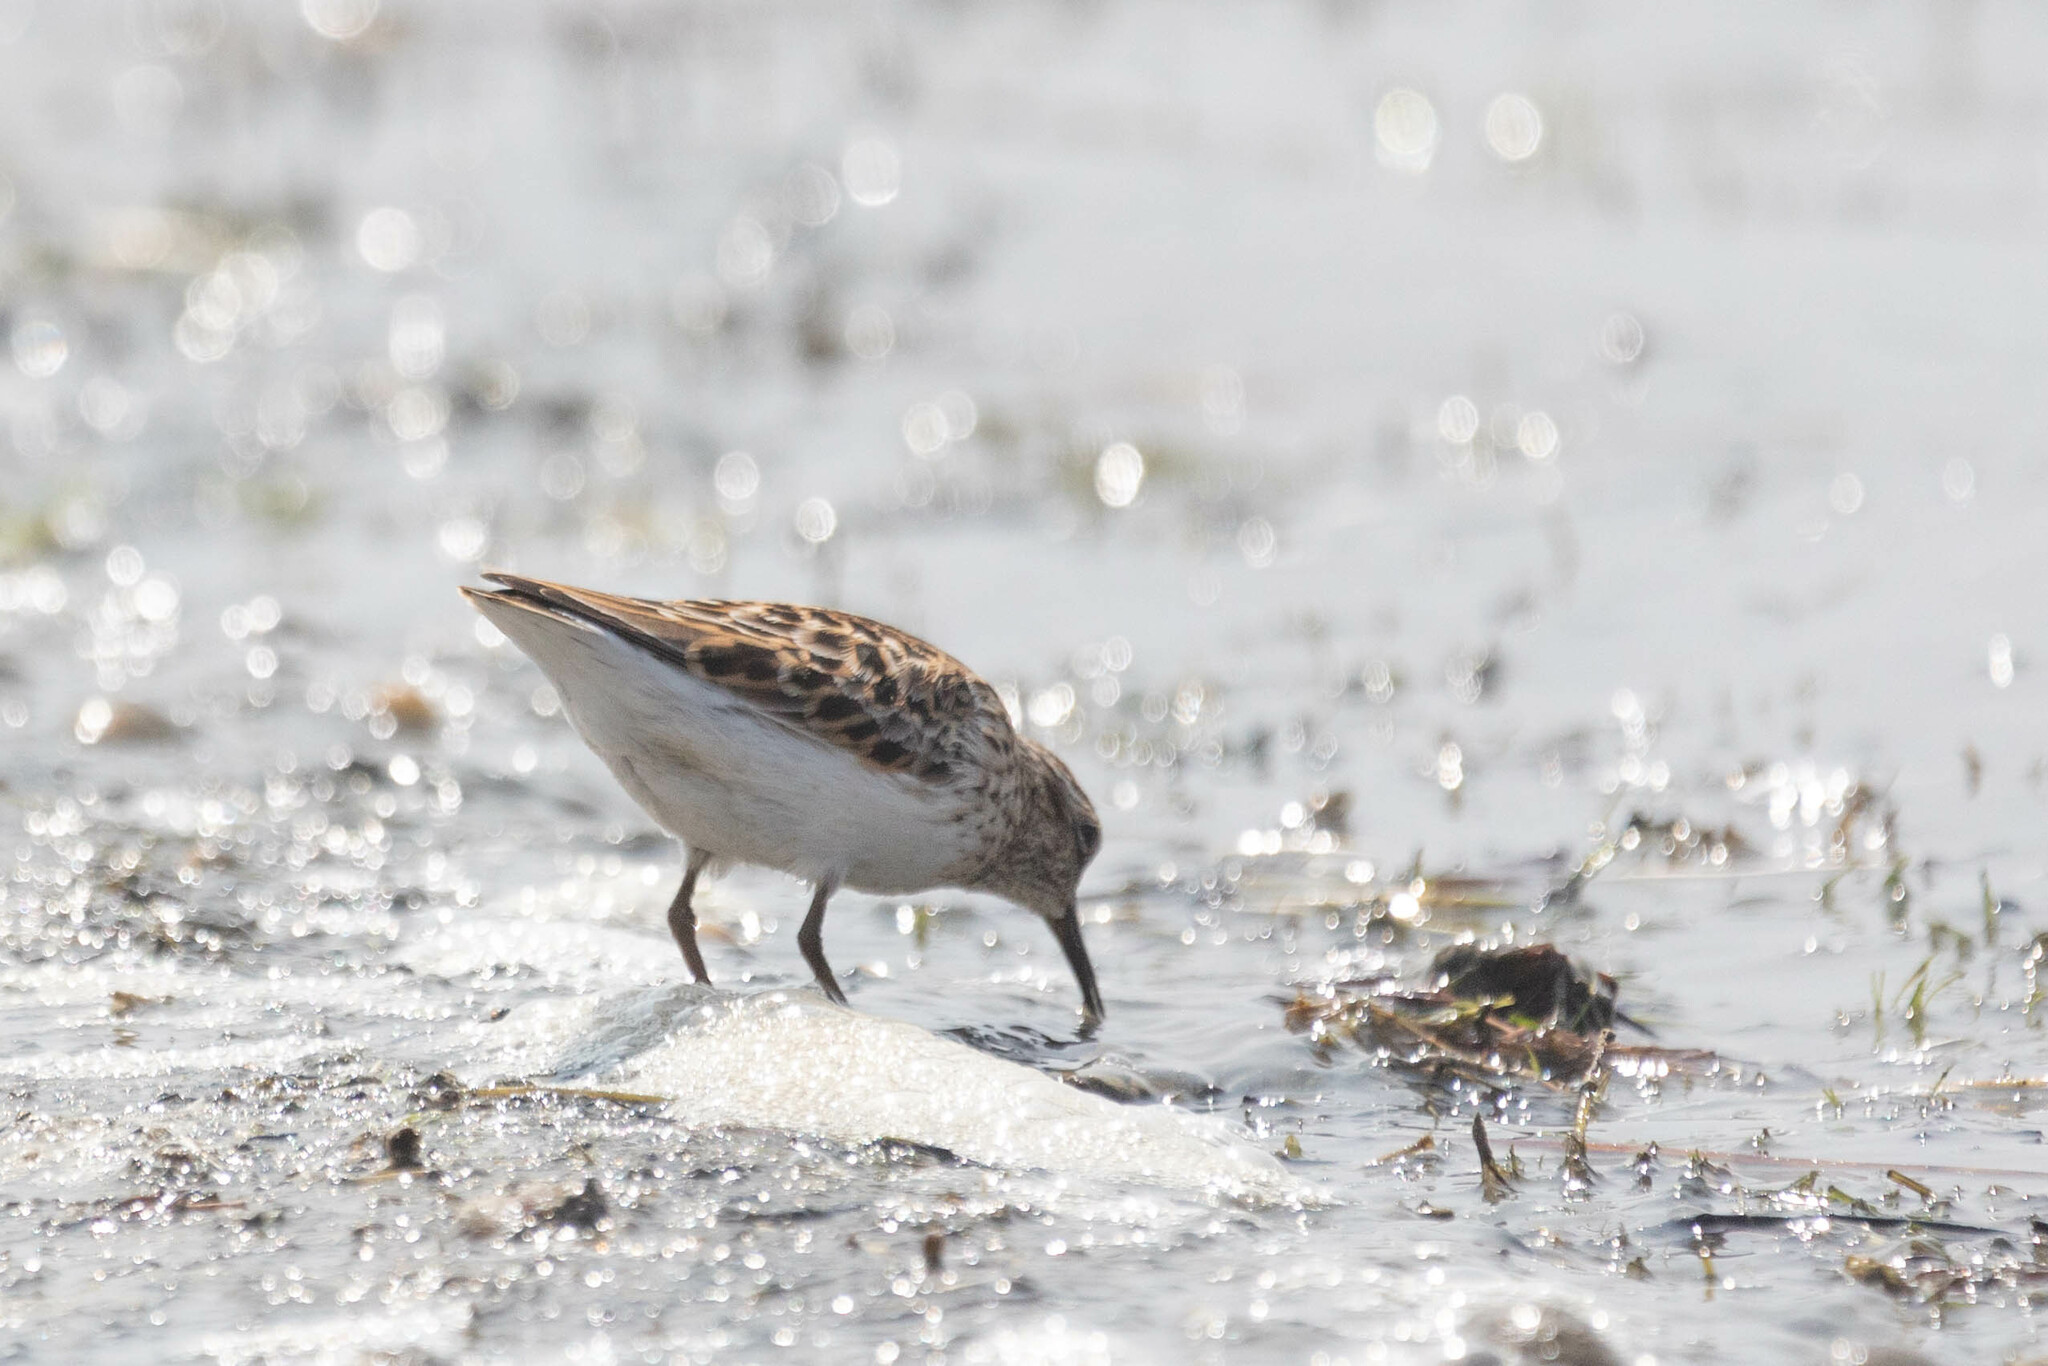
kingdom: Animalia
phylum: Chordata
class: Aves
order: Charadriiformes
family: Scolopacidae
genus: Calidris
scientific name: Calidris minutilla
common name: Least sandpiper
